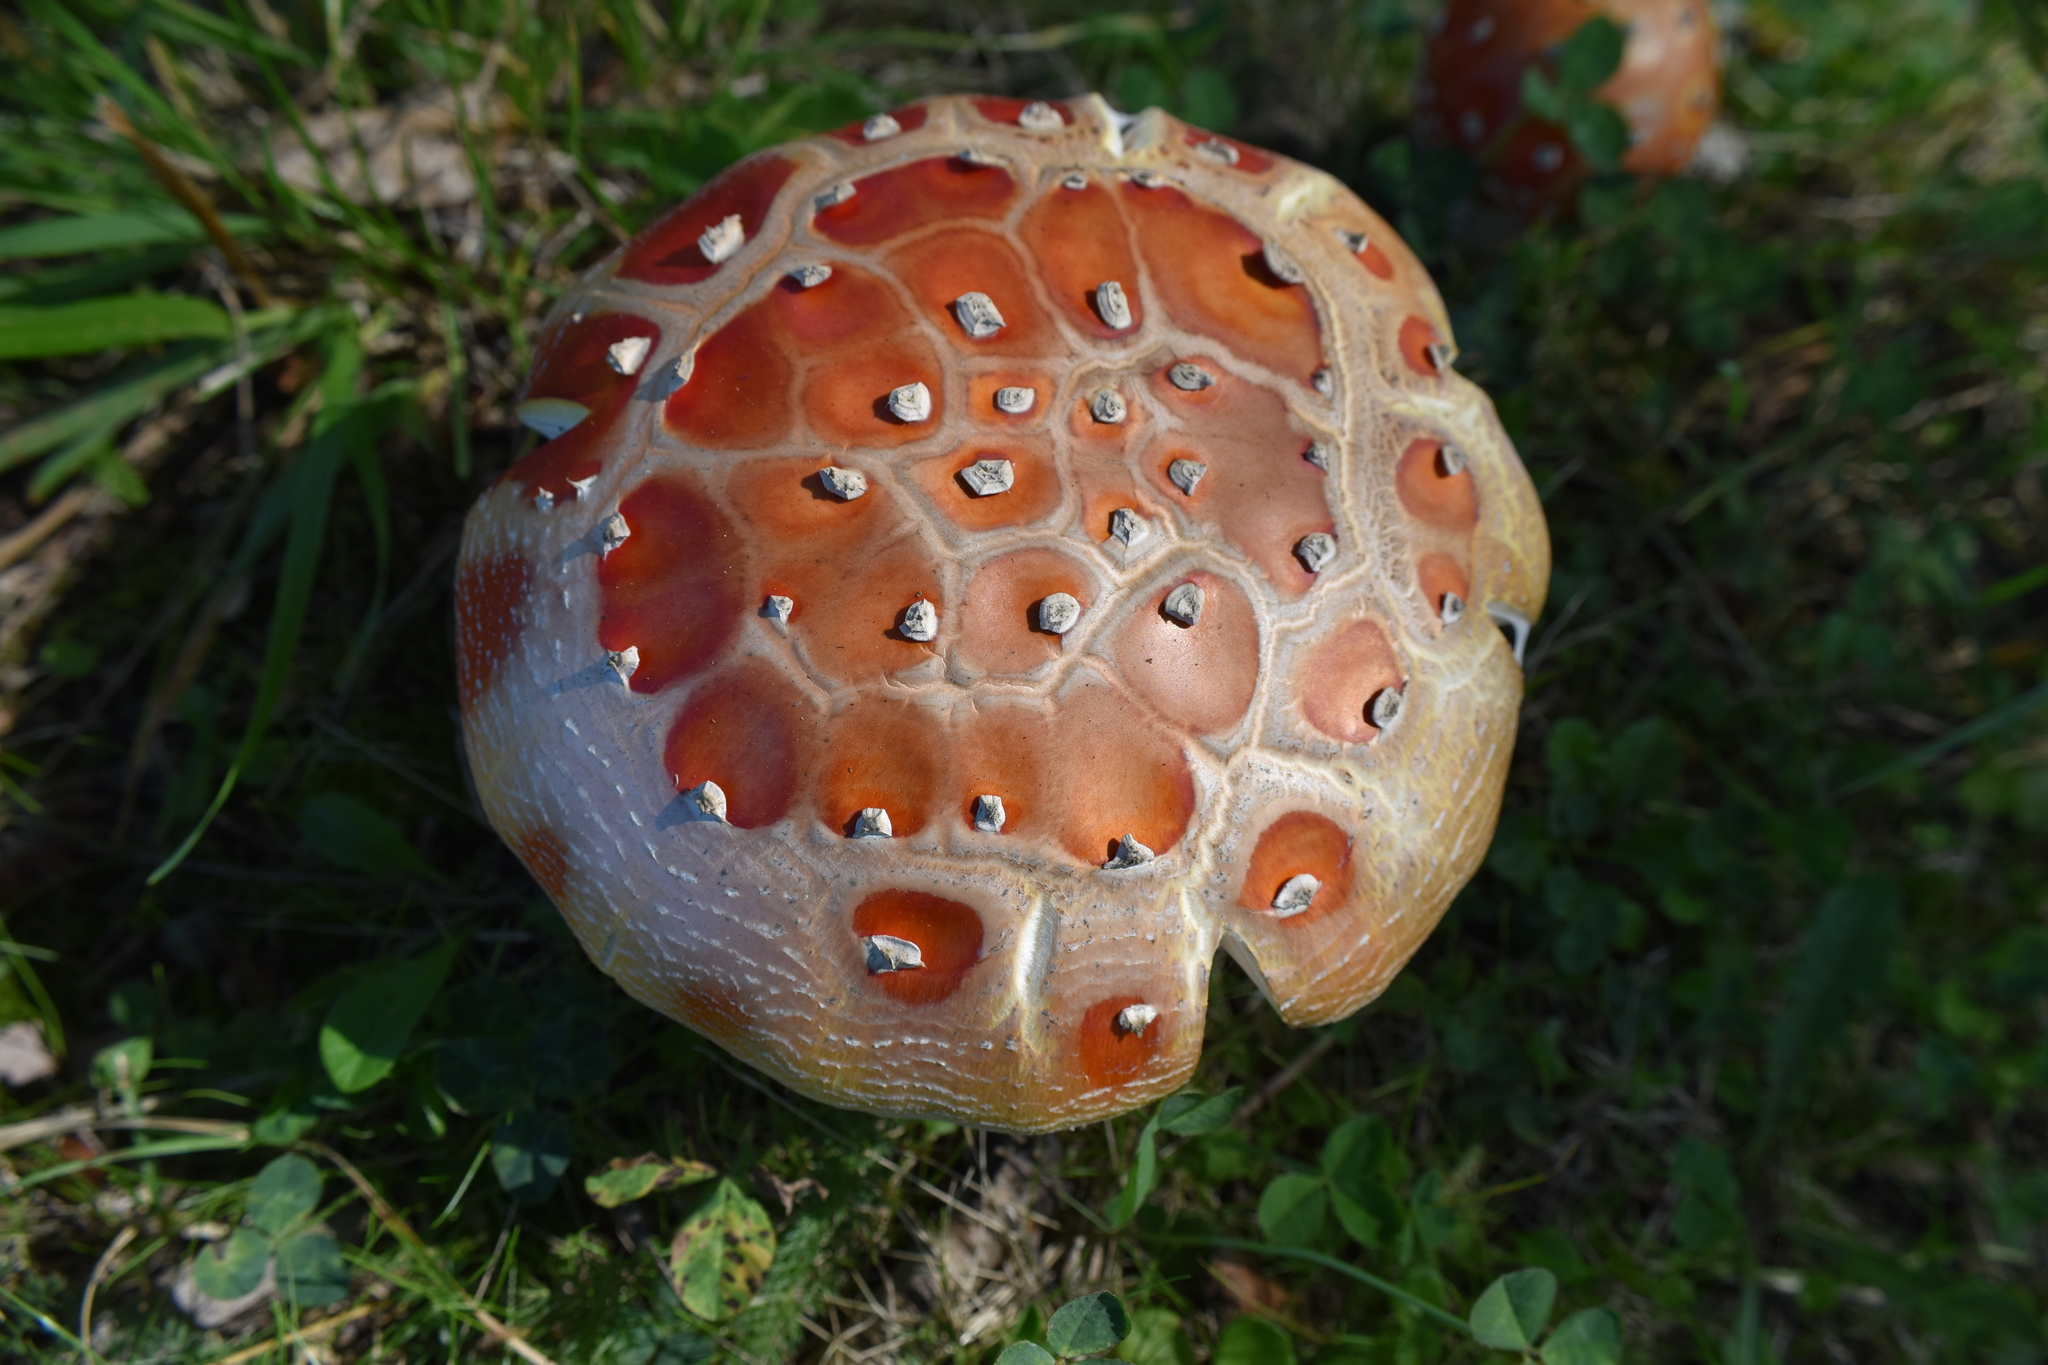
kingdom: Fungi
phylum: Basidiomycota
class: Agaricomycetes
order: Agaricales
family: Amanitaceae
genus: Amanita
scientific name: Amanita muscaria
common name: Fly agaric
